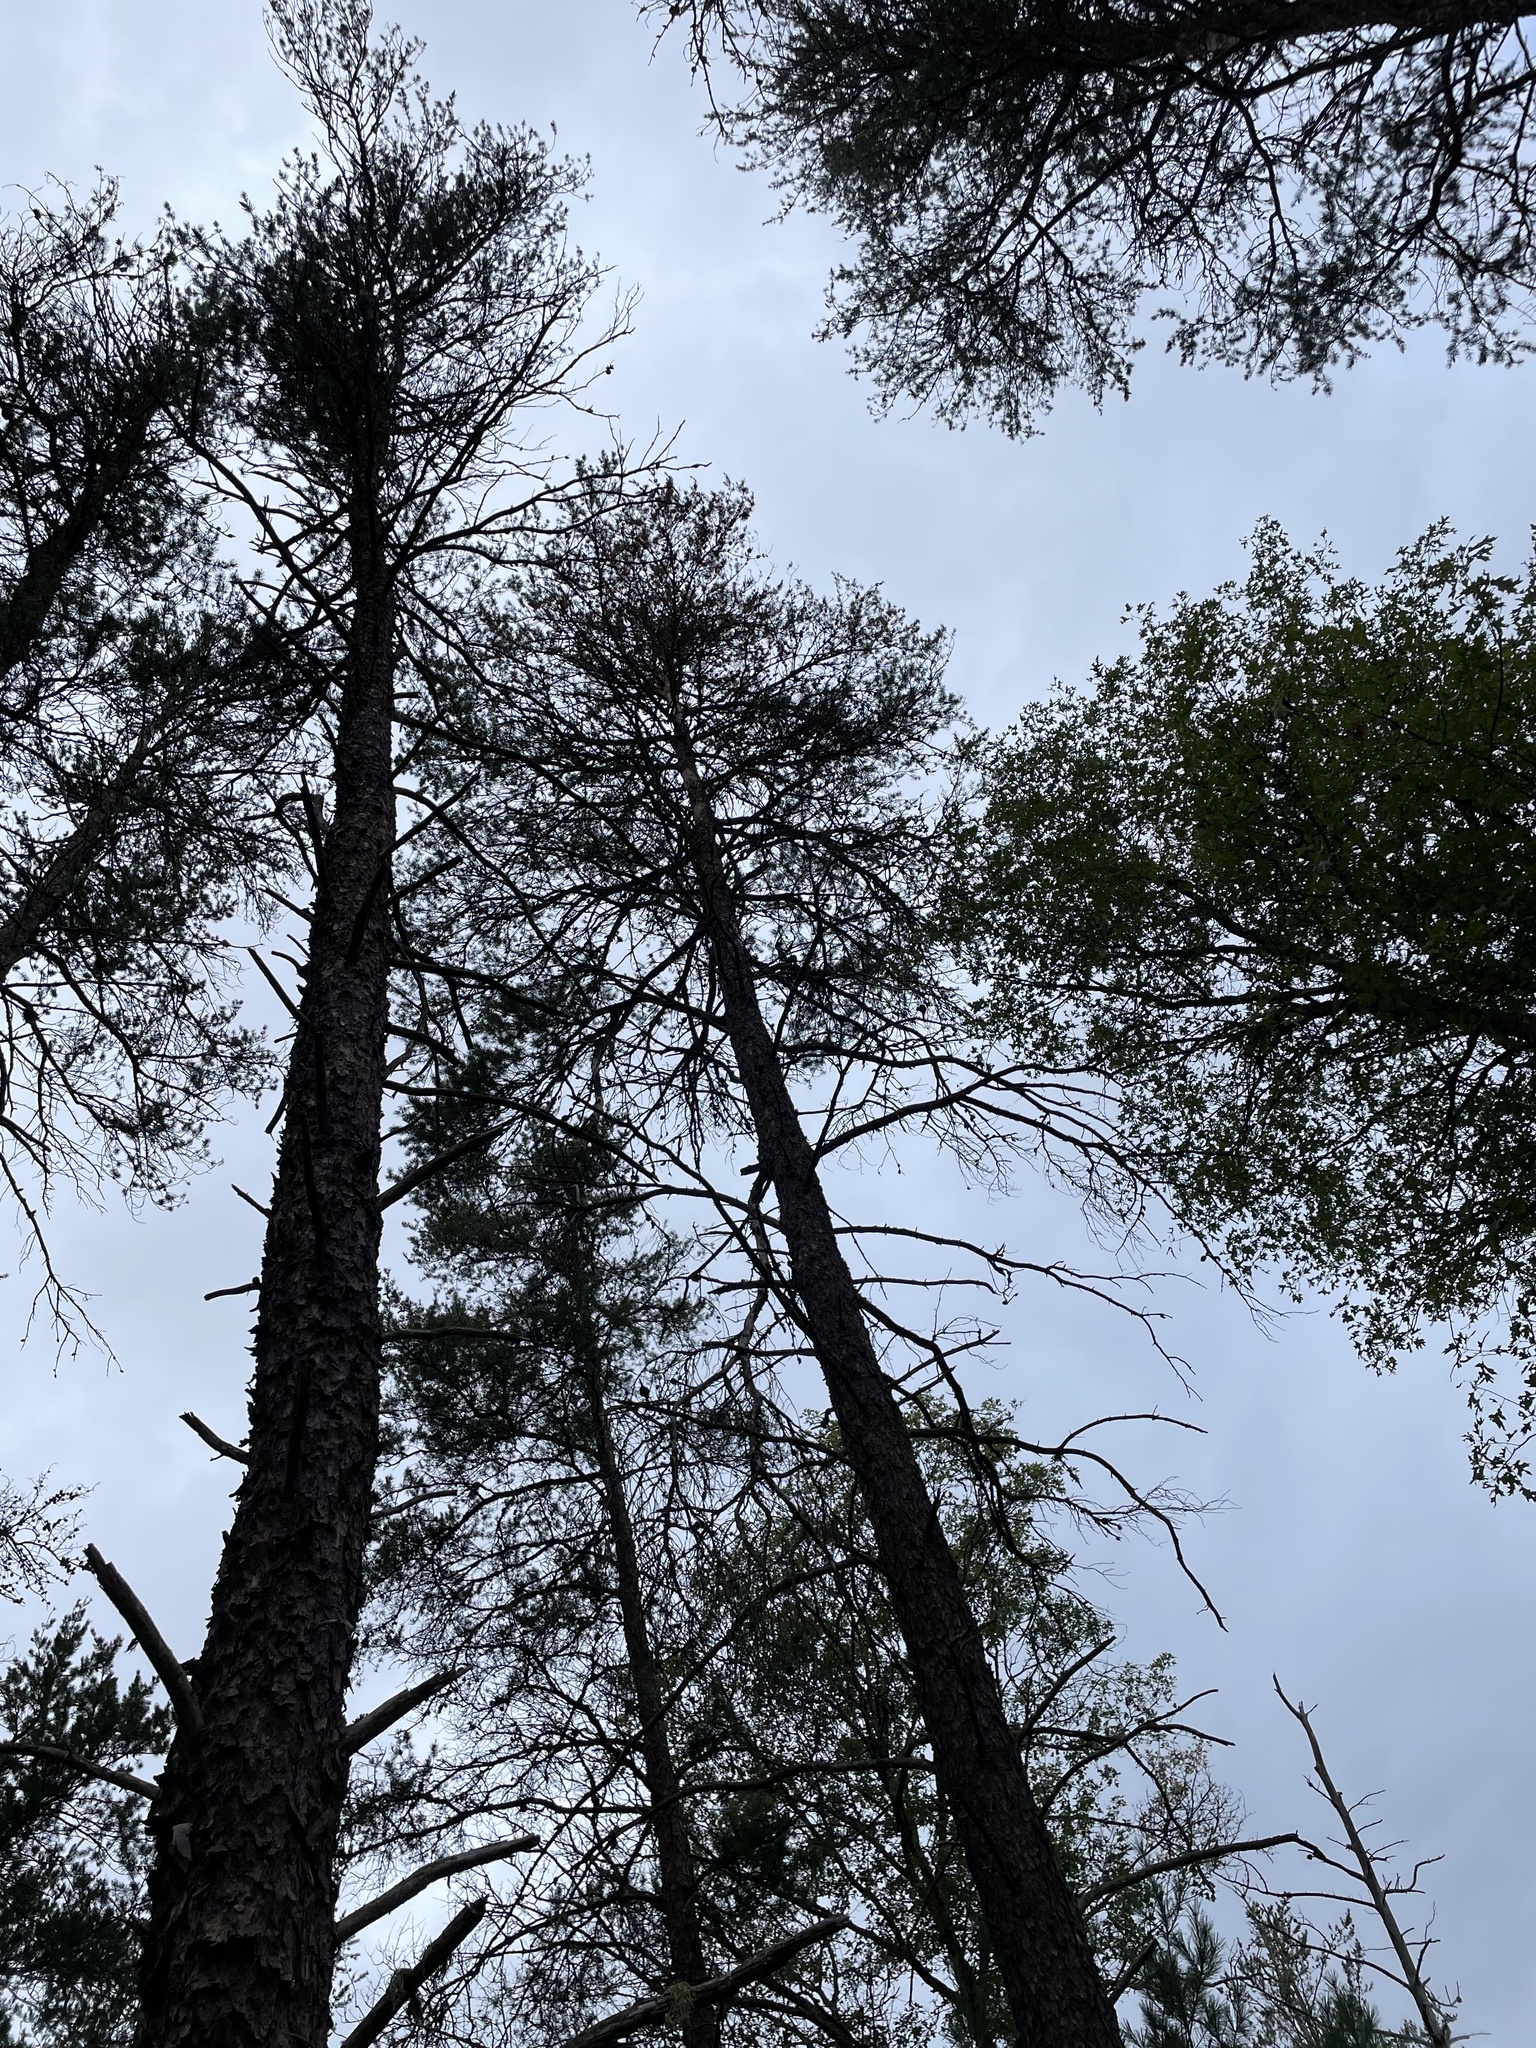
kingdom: Plantae
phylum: Tracheophyta
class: Pinopsida
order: Pinales
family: Pinaceae
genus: Pinus
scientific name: Pinus banksiana
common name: Jack pine
